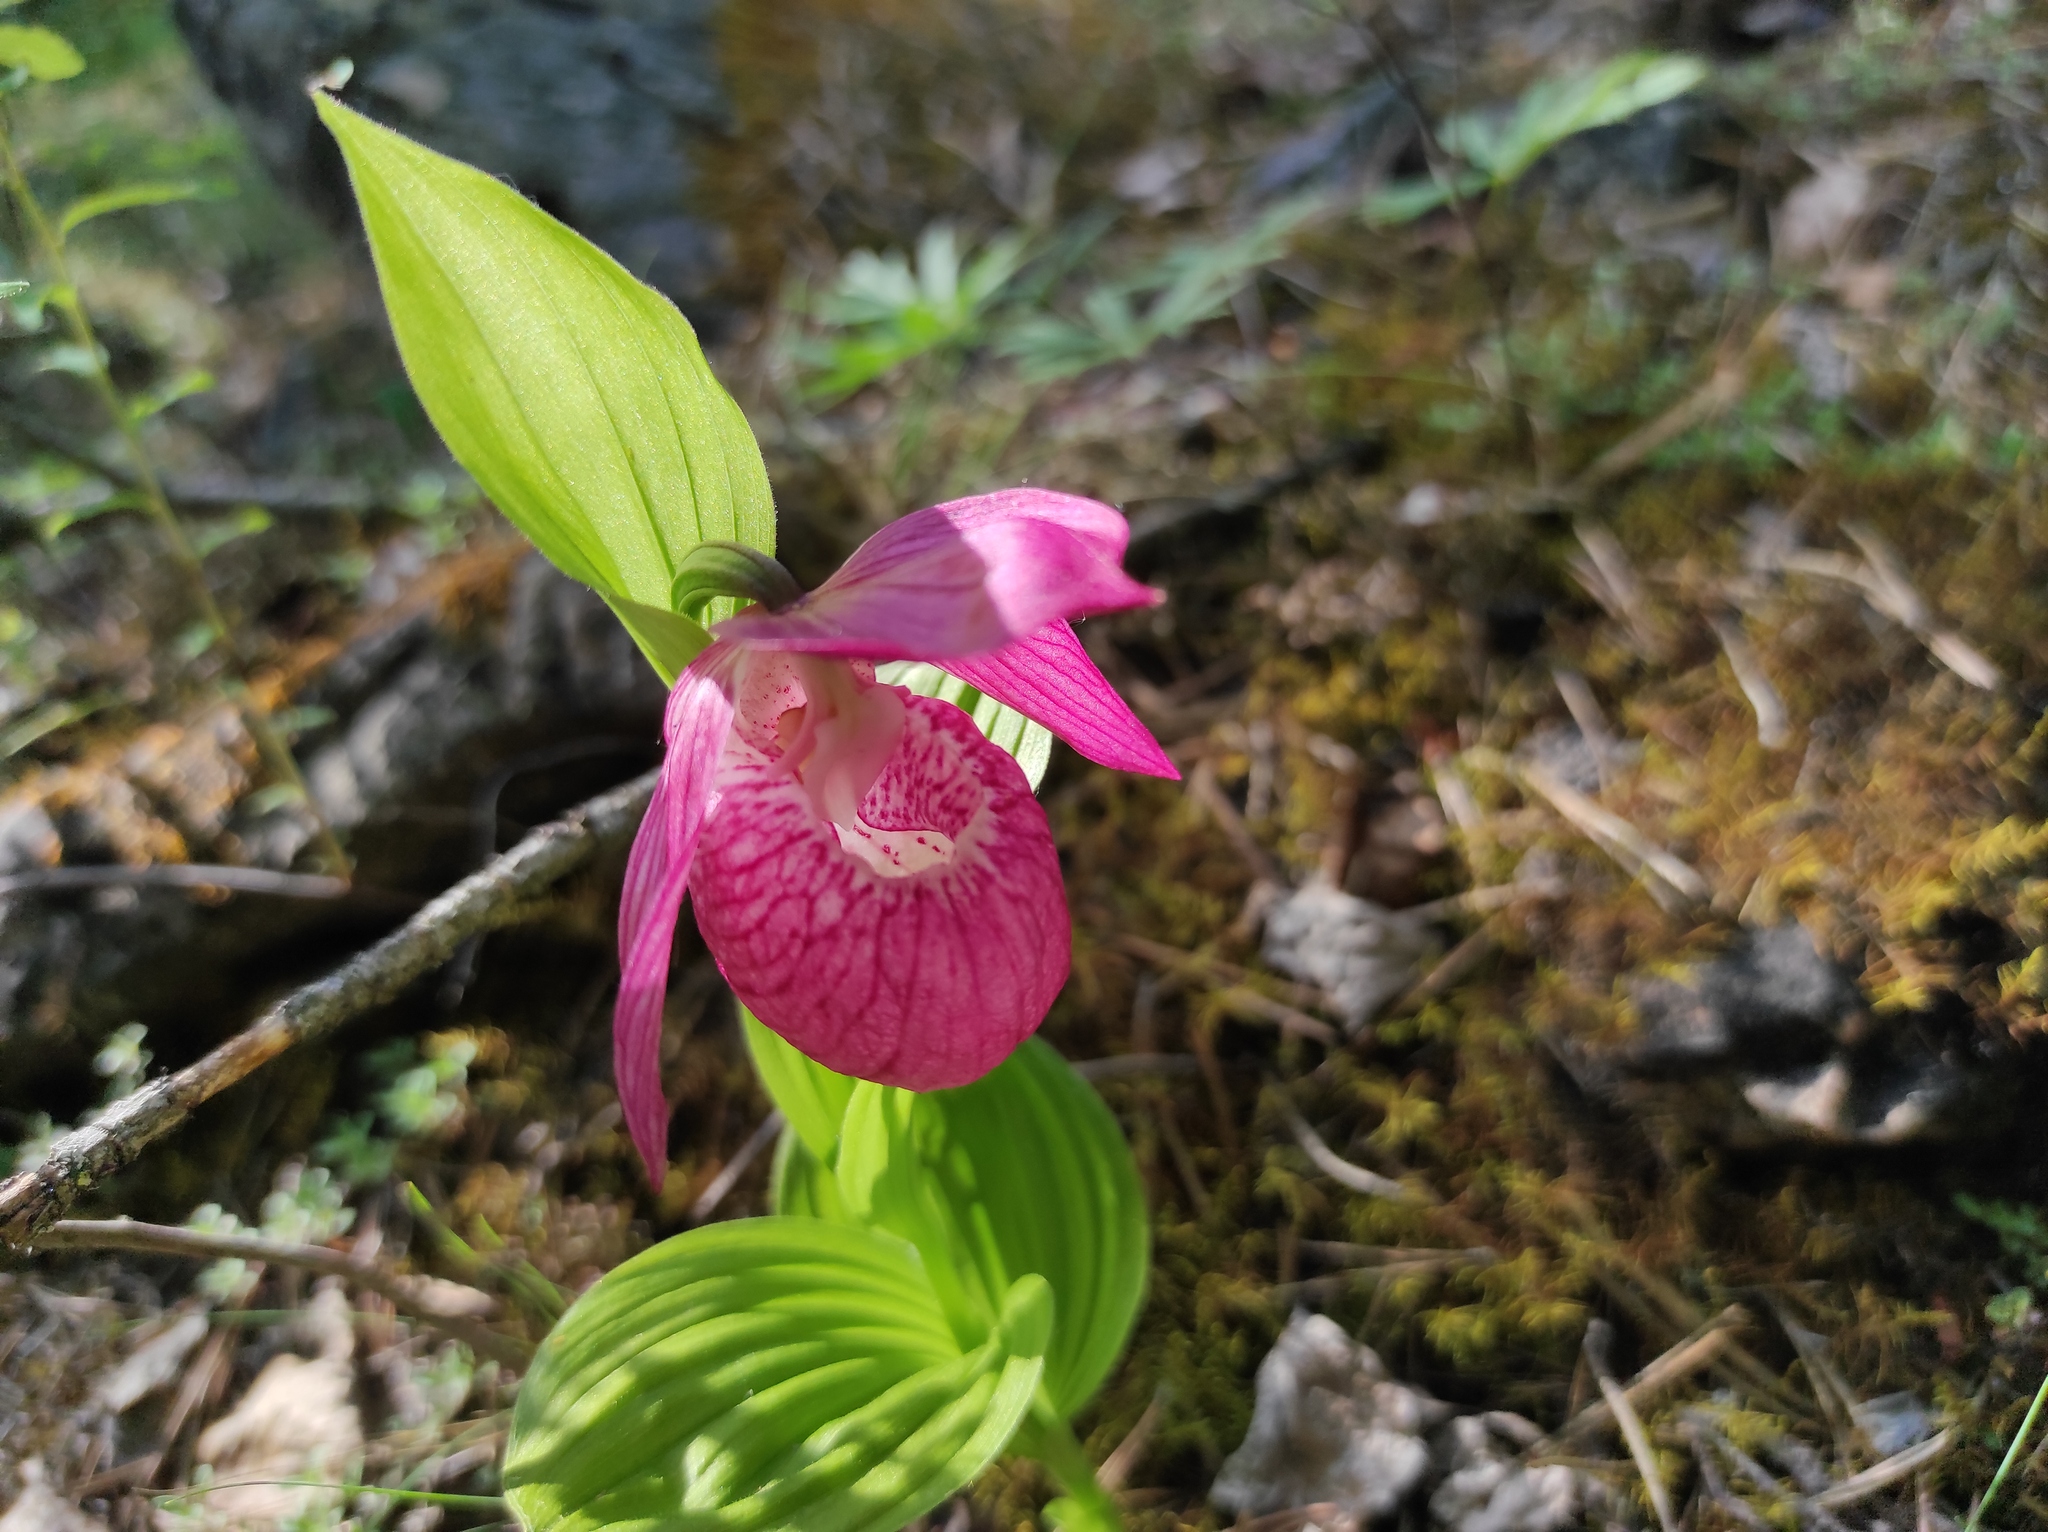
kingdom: Plantae
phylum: Tracheophyta
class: Liliopsida
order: Asparagales
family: Orchidaceae
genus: Cypripedium
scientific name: Cypripedium macranthos
